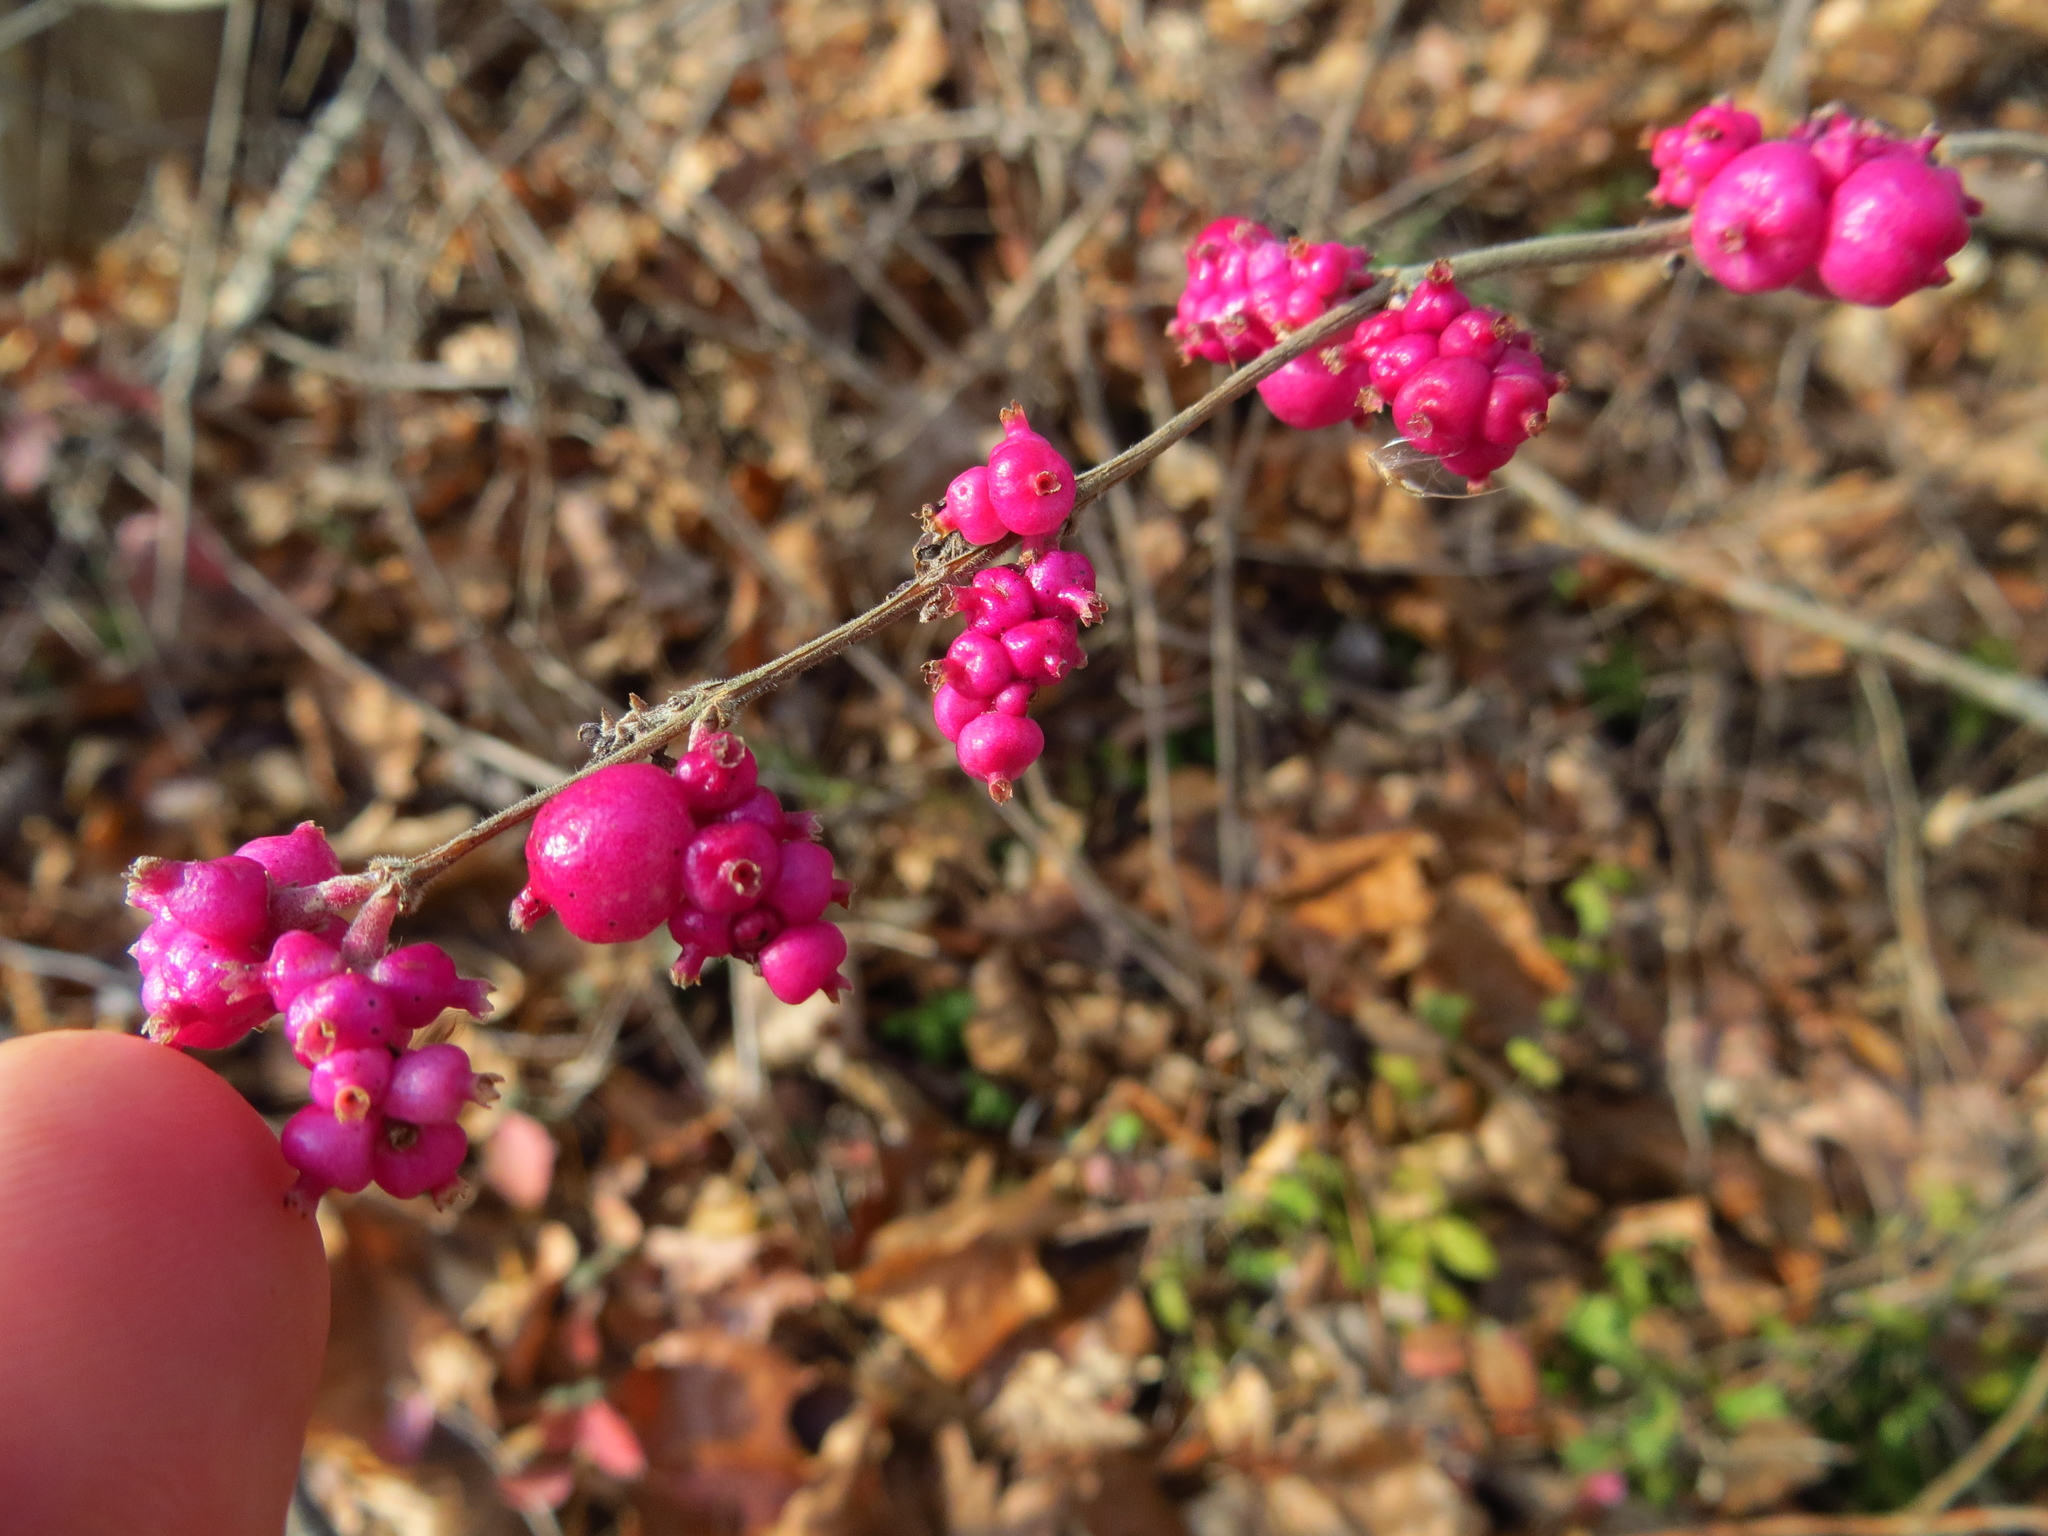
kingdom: Plantae
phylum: Tracheophyta
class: Magnoliopsida
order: Dipsacales
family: Caprifoliaceae
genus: Symphoricarpos
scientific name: Symphoricarpos orbiculatus
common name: Coralberry
